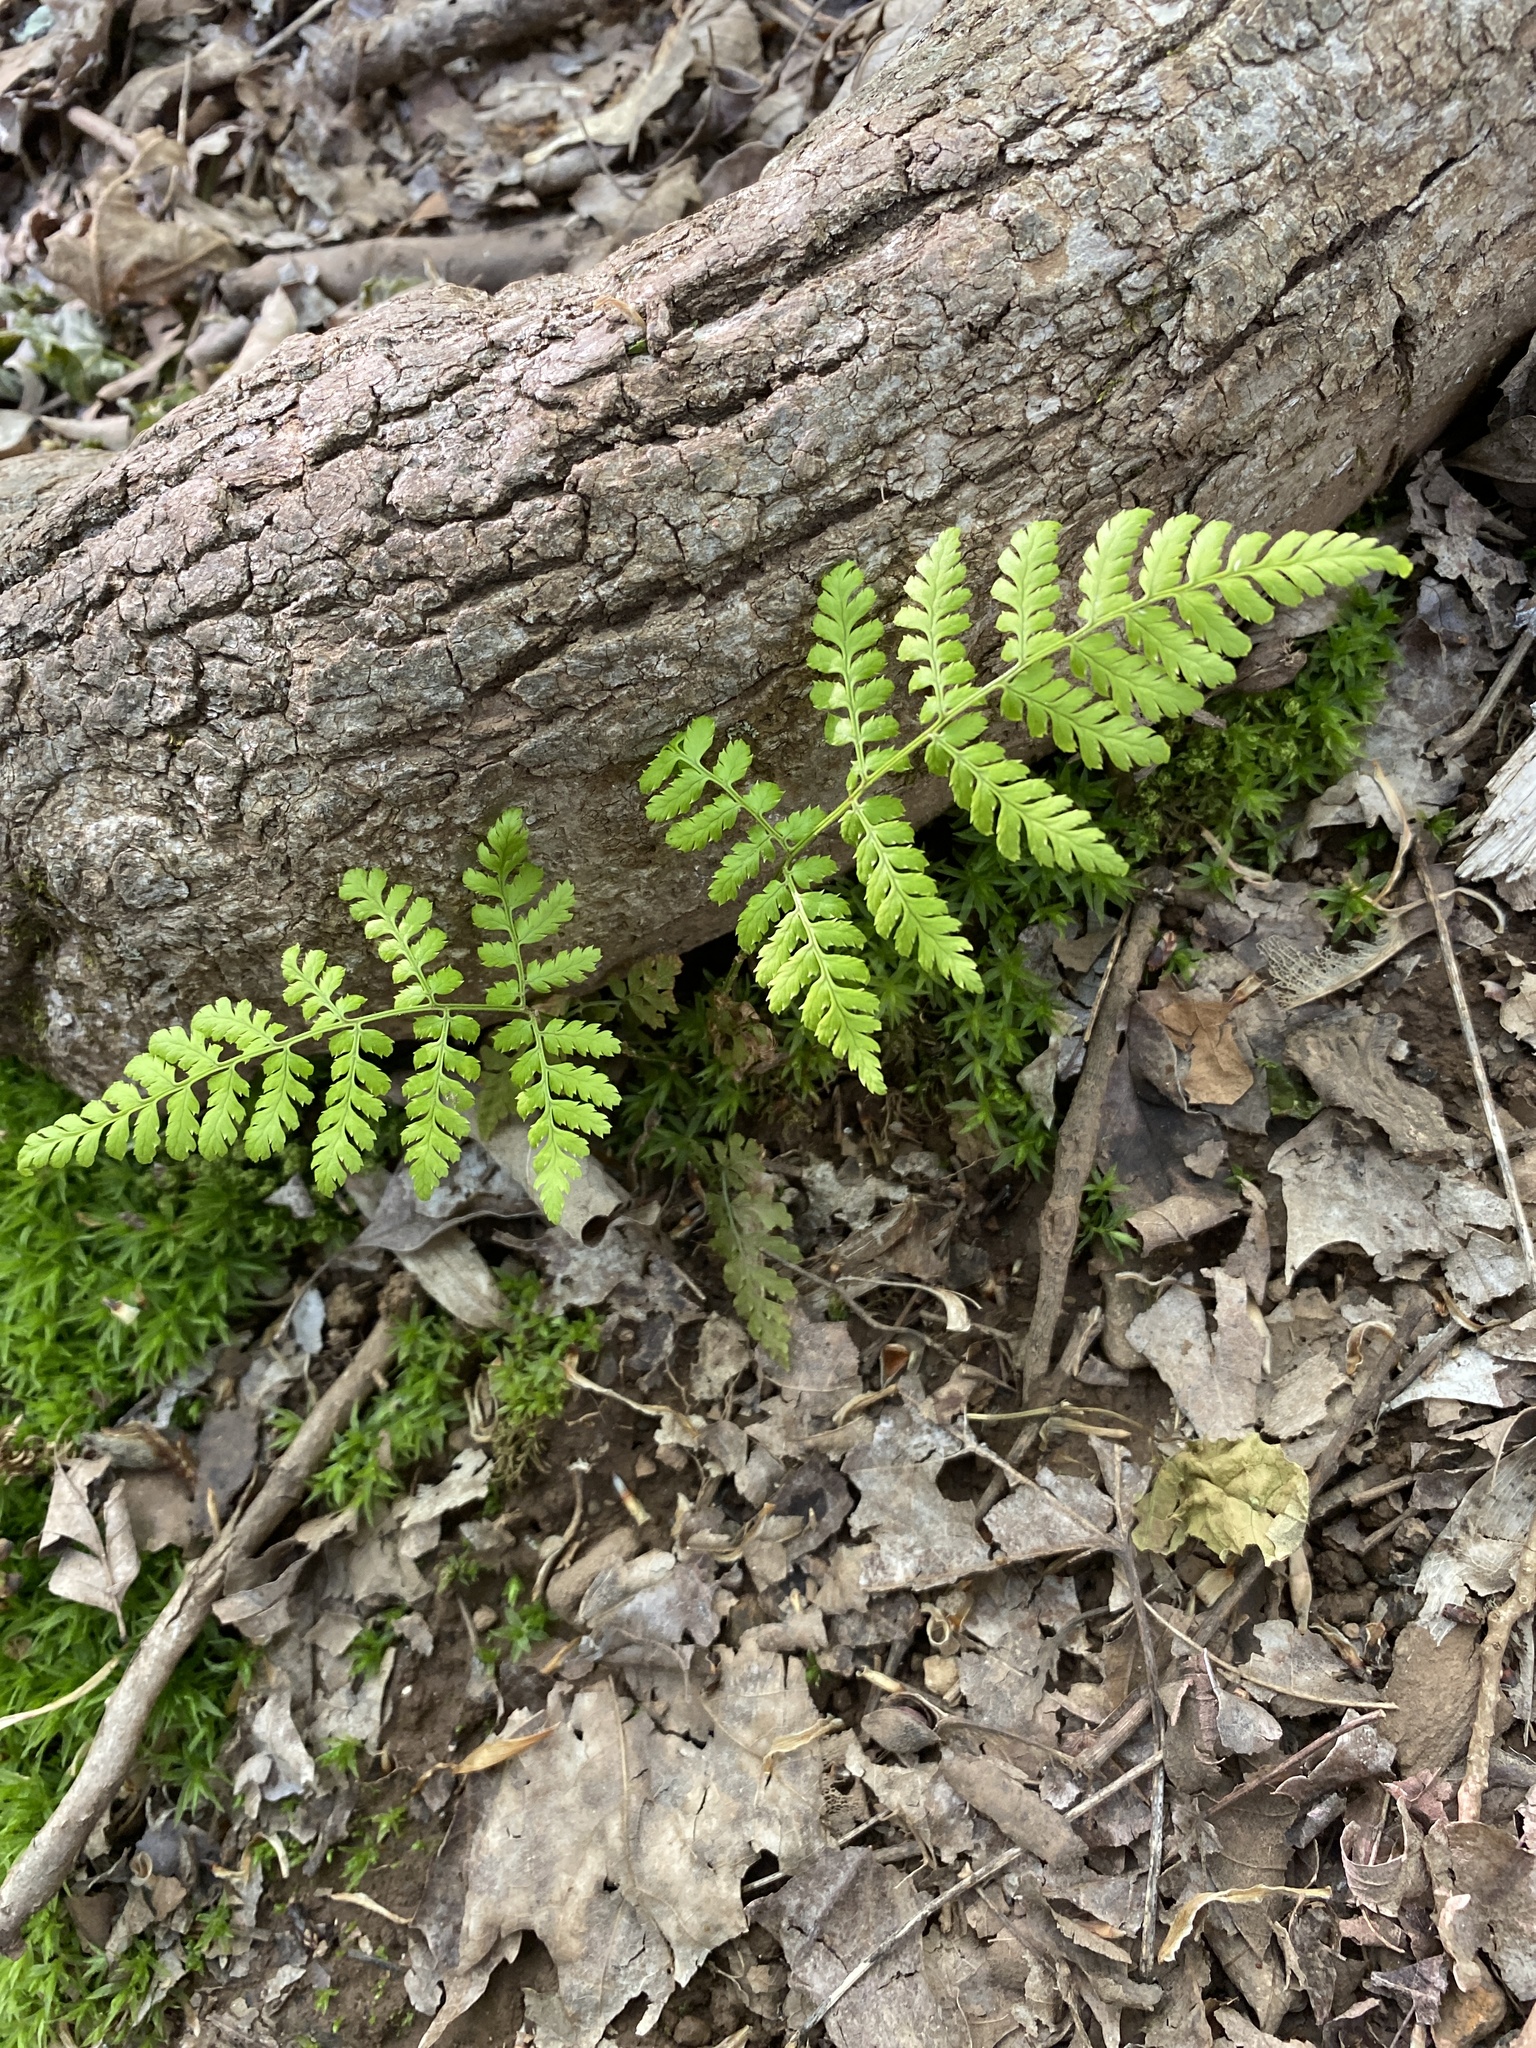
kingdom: Plantae
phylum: Tracheophyta
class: Polypodiopsida
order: Polypodiales
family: Dryopteridaceae
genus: Dryopteris
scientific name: Dryopteris intermedia
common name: Evergreen wood fern
